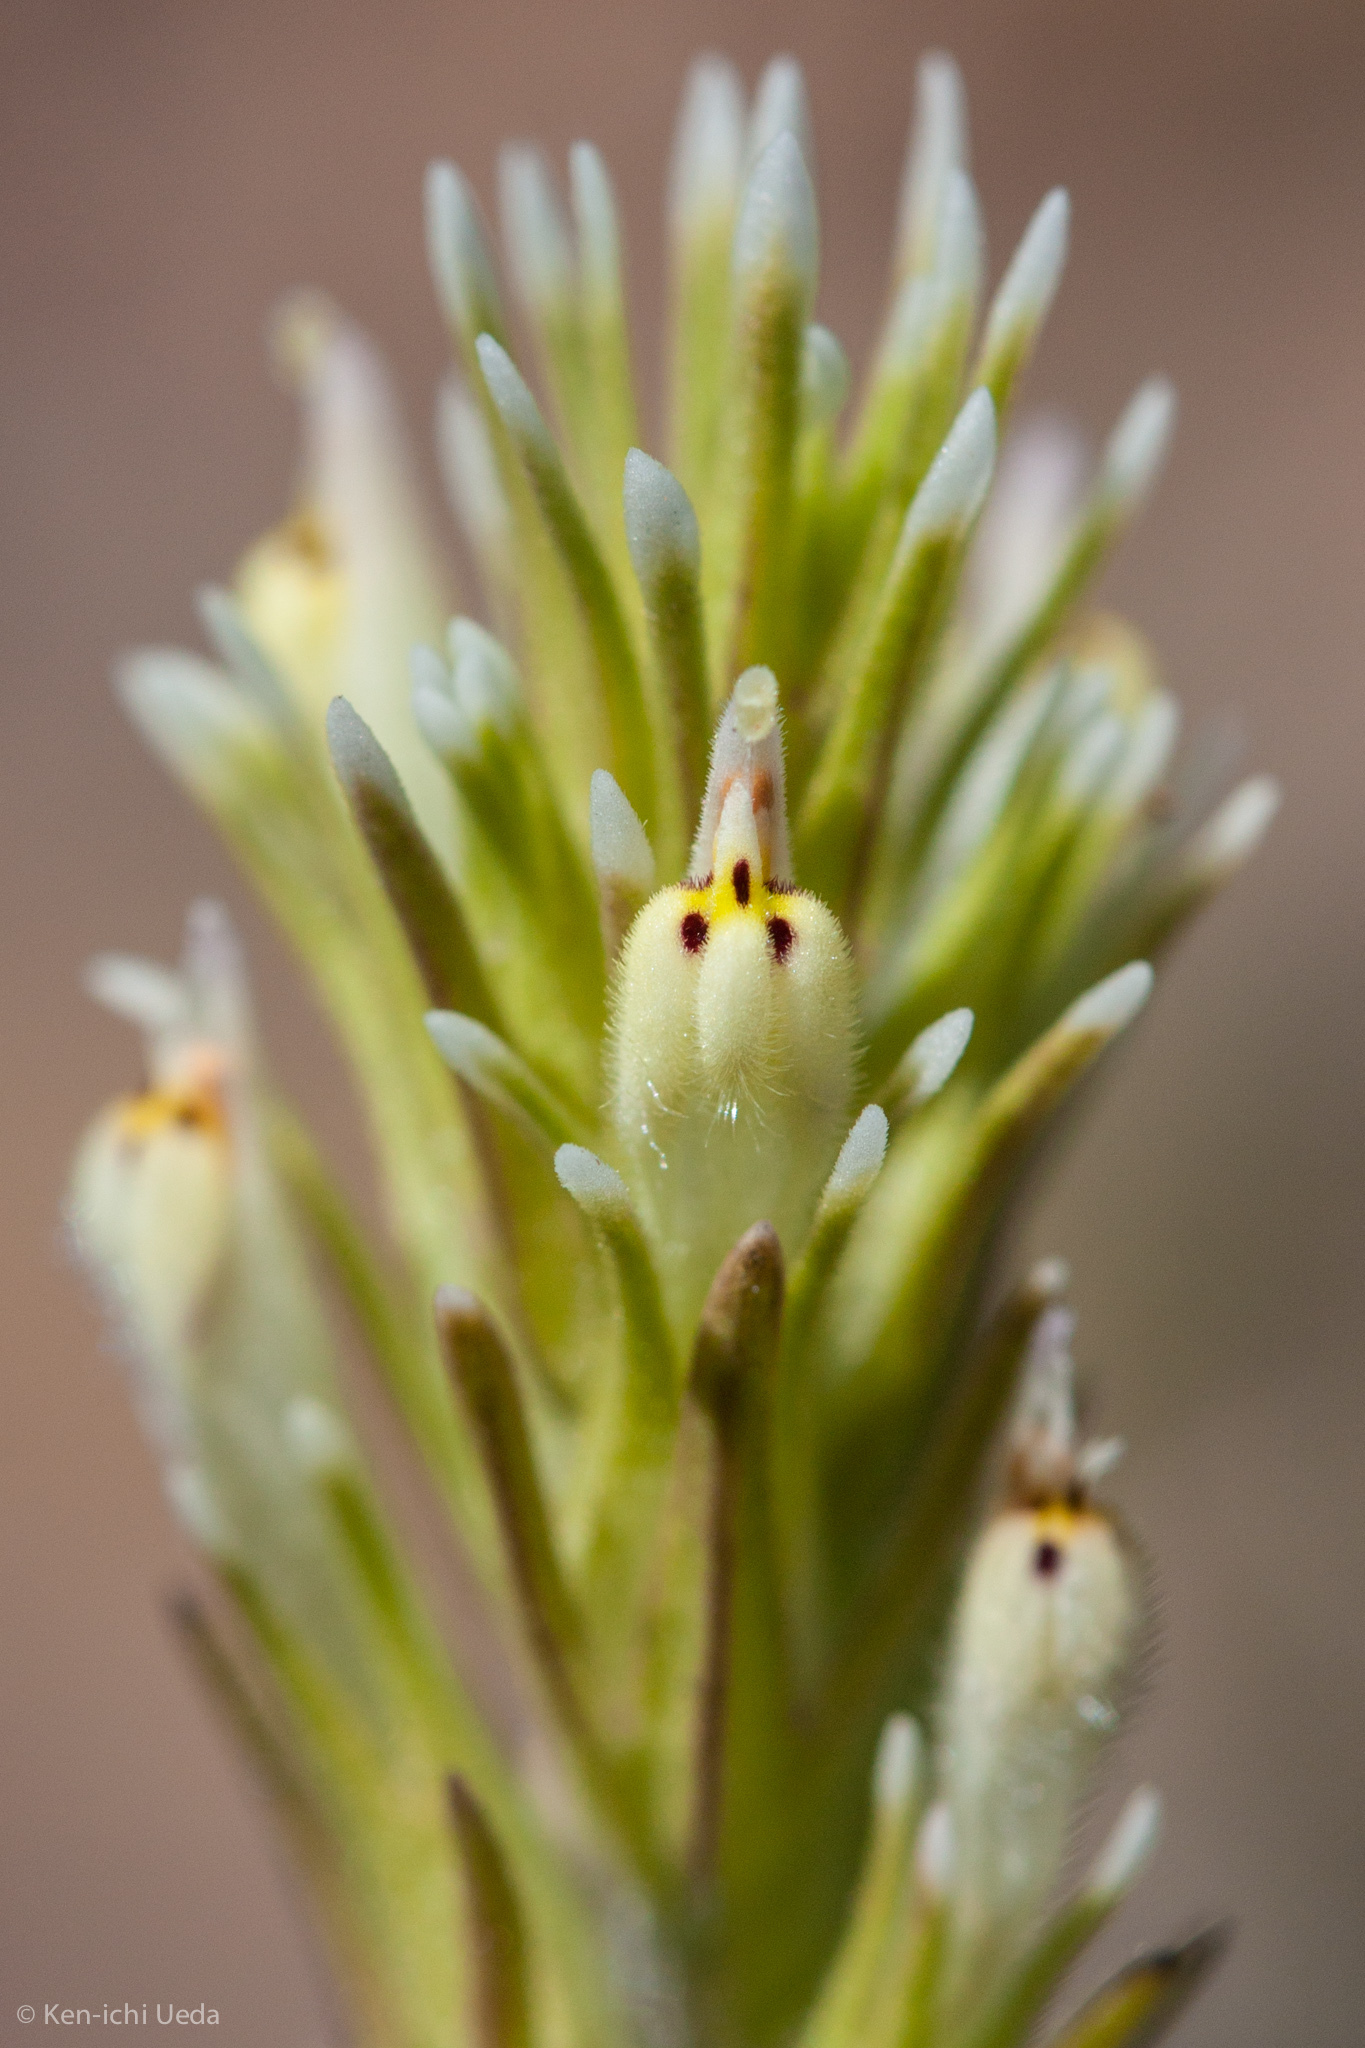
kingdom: Plantae
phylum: Tracheophyta
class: Magnoliopsida
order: Lamiales
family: Orobanchaceae
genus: Castilleja
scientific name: Castilleja attenuata
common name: Valley tassels
